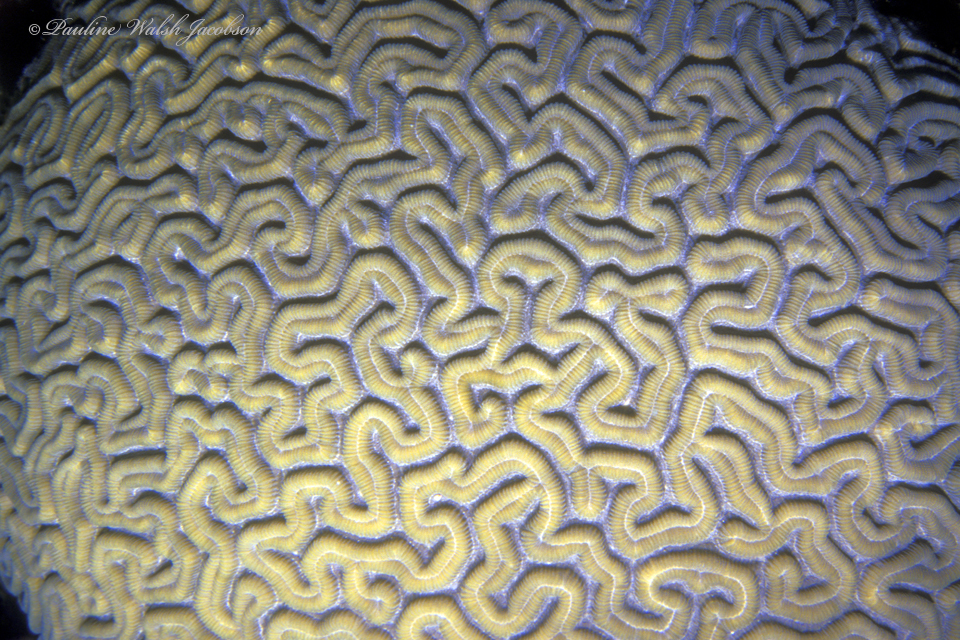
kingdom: Animalia
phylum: Cnidaria
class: Anthozoa
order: Scleractinia
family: Faviidae
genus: Diploria
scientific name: Diploria labyrinthiformis
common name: Grooved brain coral
